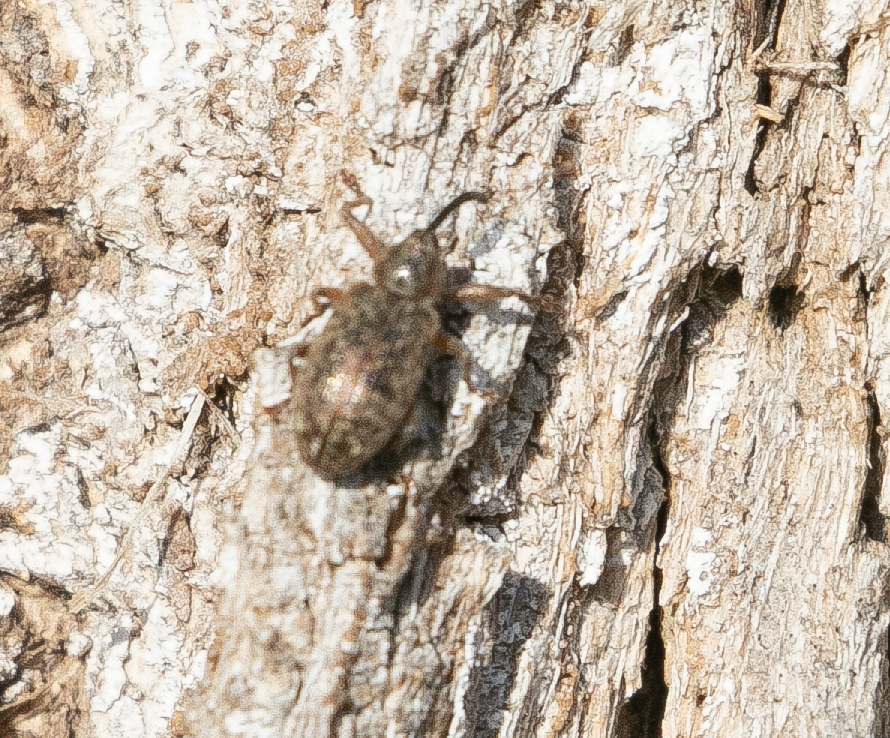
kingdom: Animalia
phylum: Arthropoda
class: Insecta
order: Coleoptera
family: Curculionidae
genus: Dorytomus
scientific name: Dorytomus longimanus
